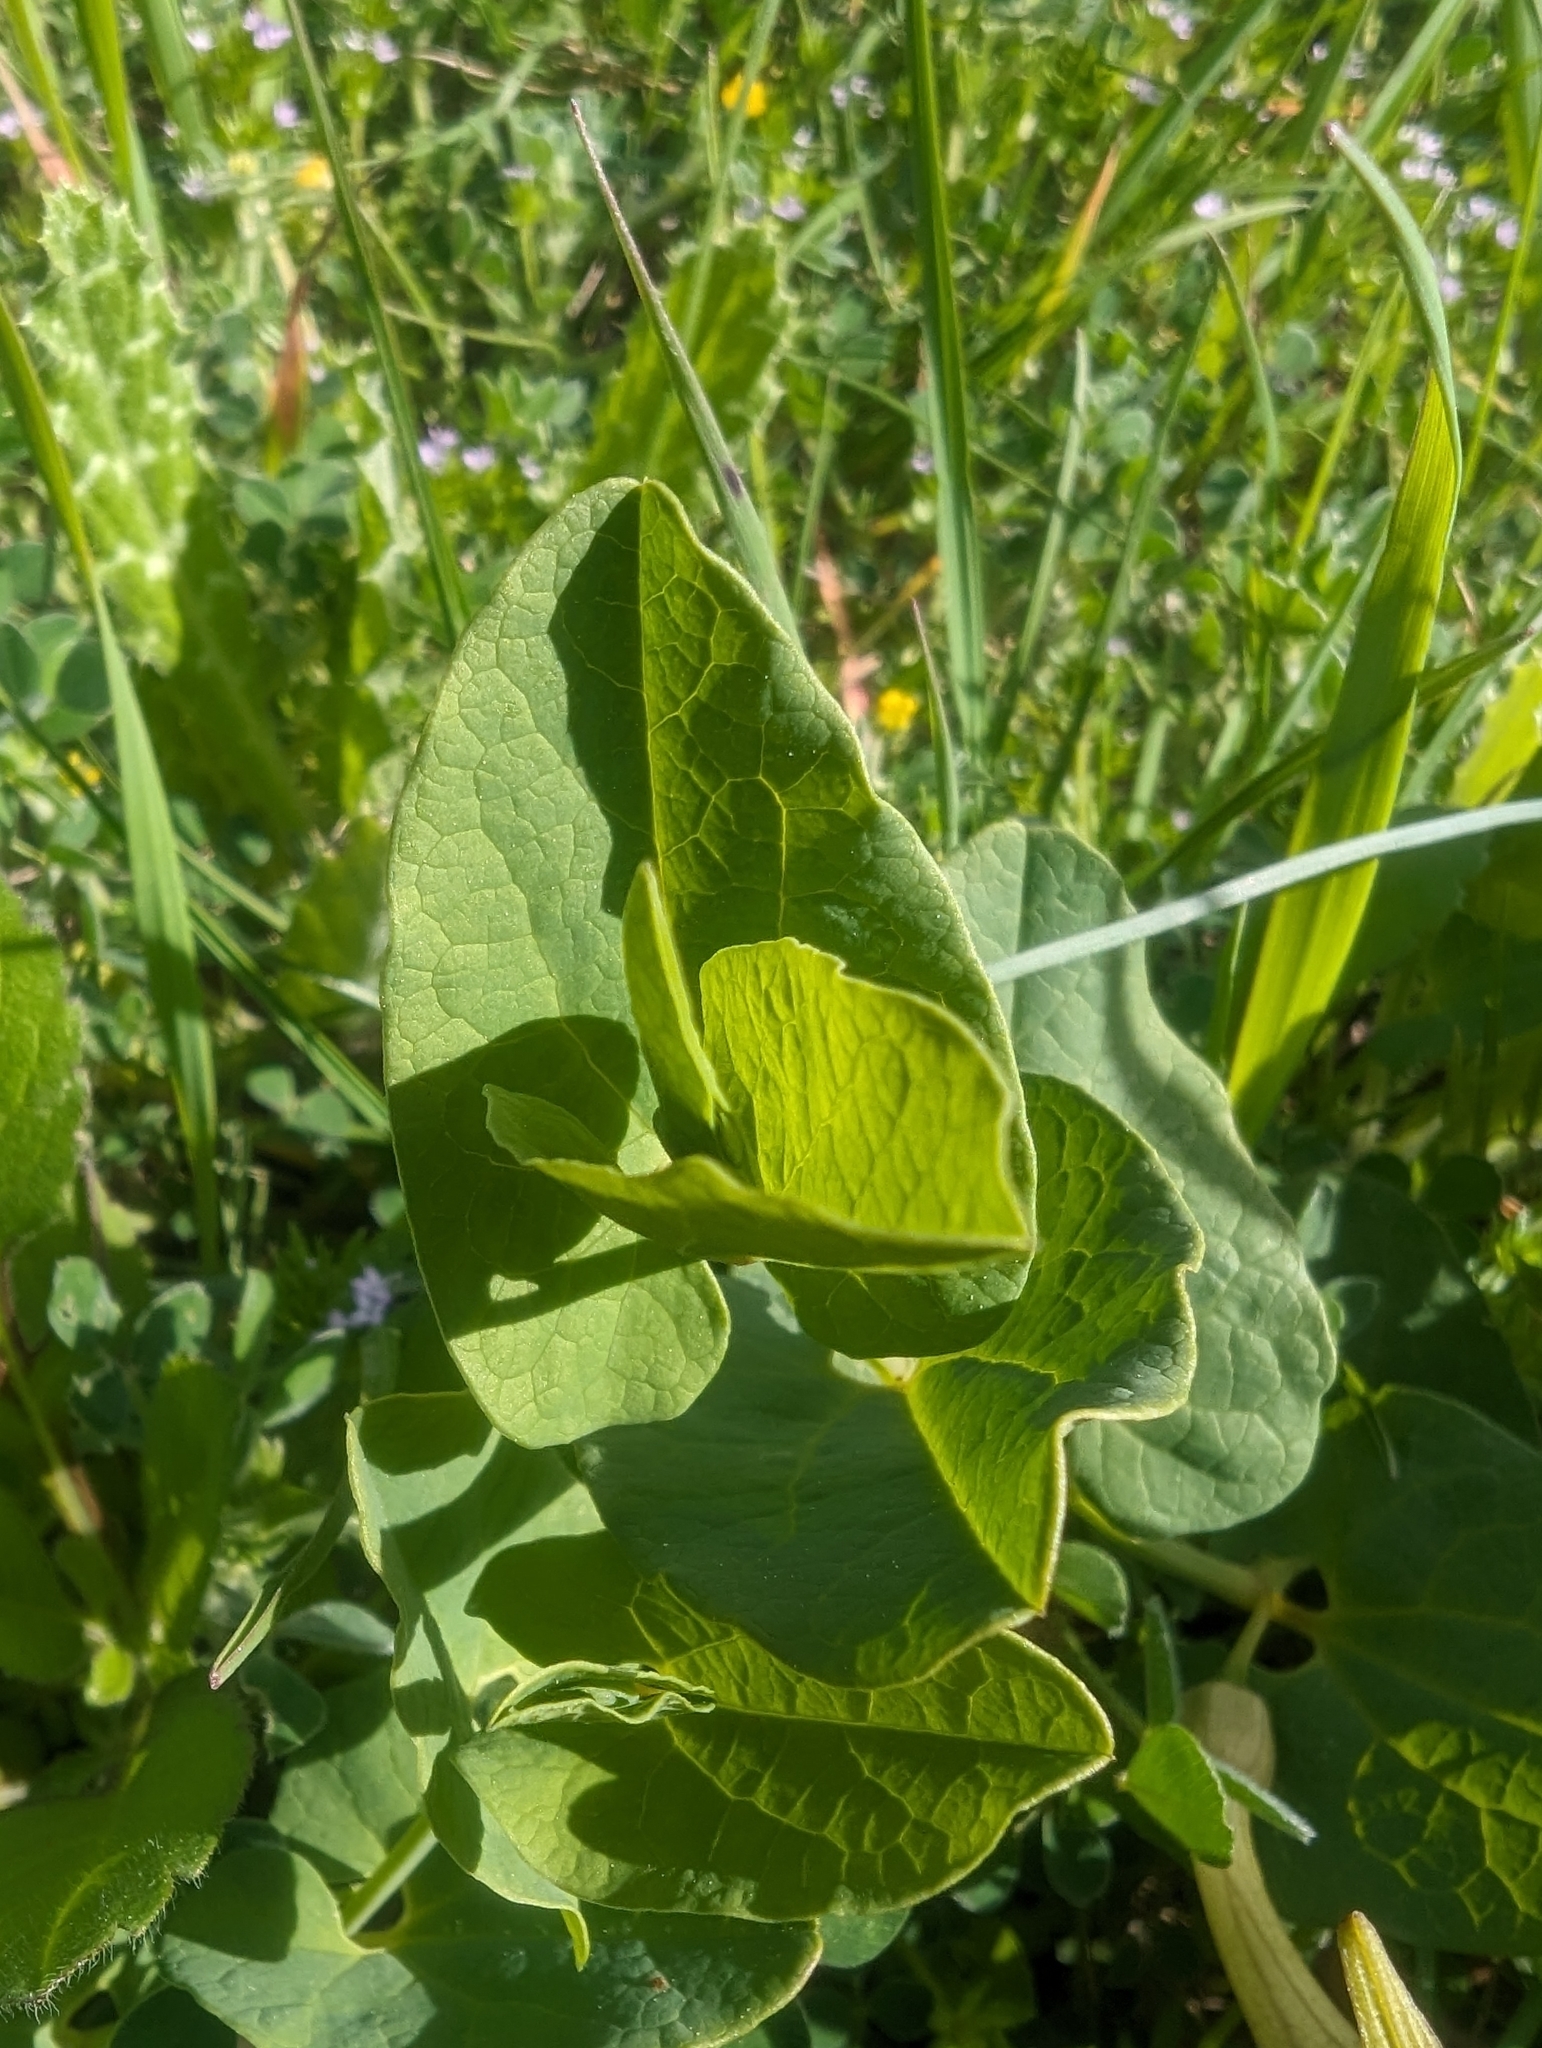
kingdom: Plantae
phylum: Tracheophyta
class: Magnoliopsida
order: Piperales
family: Aristolochiaceae
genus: Aristolochia
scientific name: Aristolochia paucinervis
